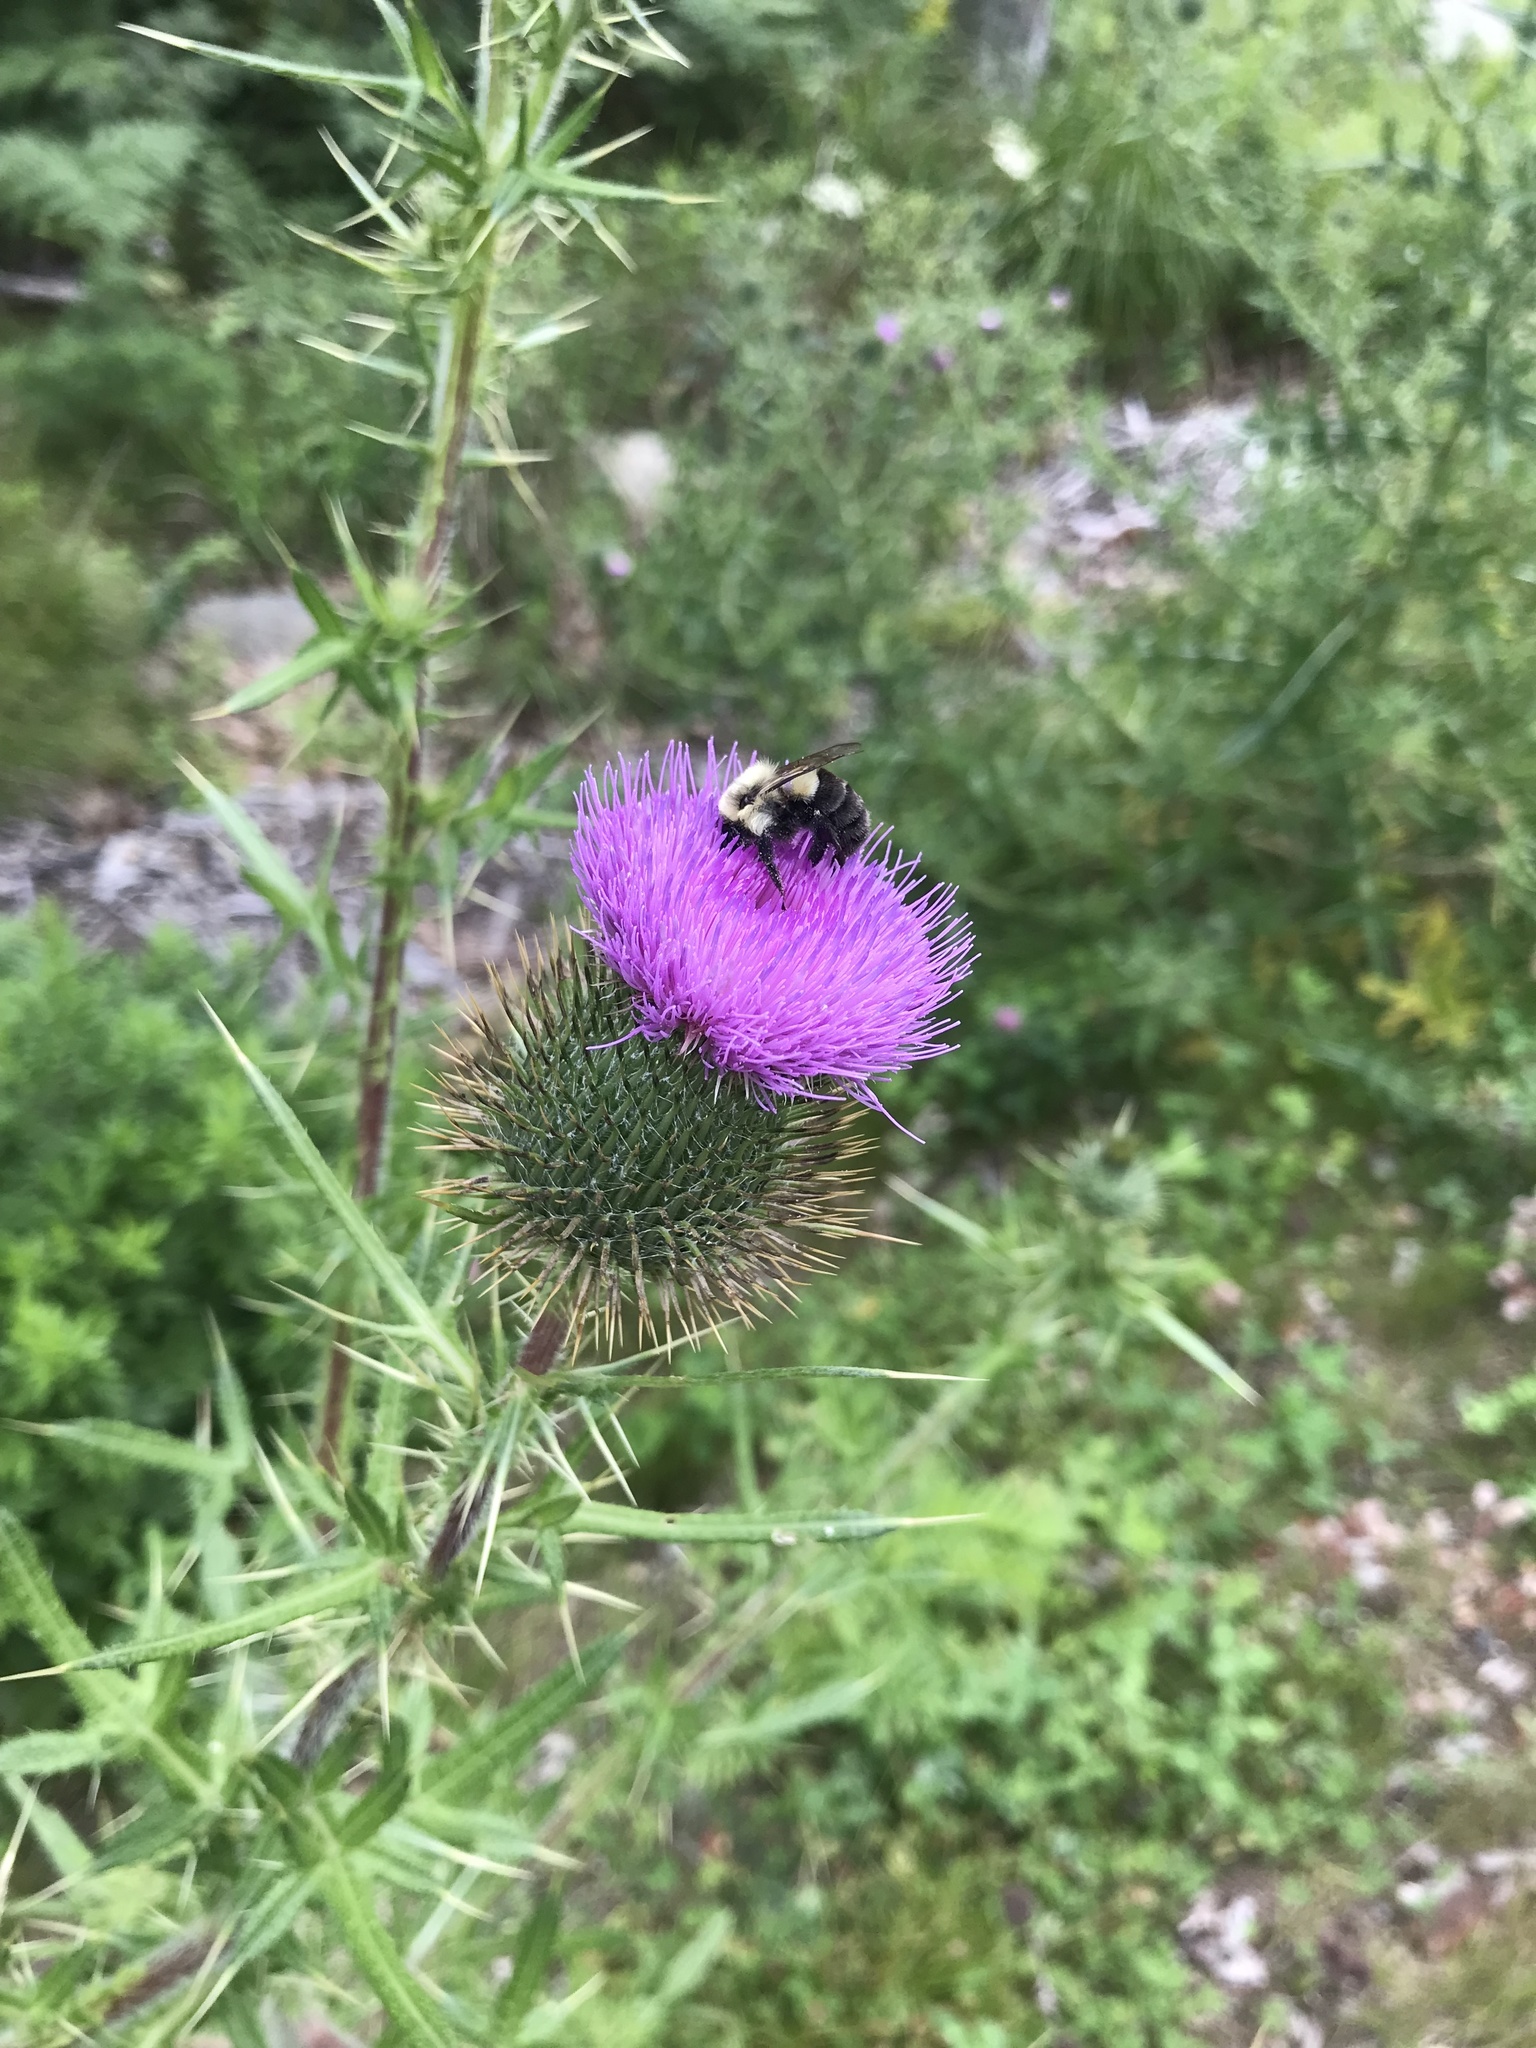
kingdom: Plantae
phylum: Tracheophyta
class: Magnoliopsida
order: Asterales
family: Asteraceae
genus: Cirsium
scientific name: Cirsium vulgare
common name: Bull thistle
